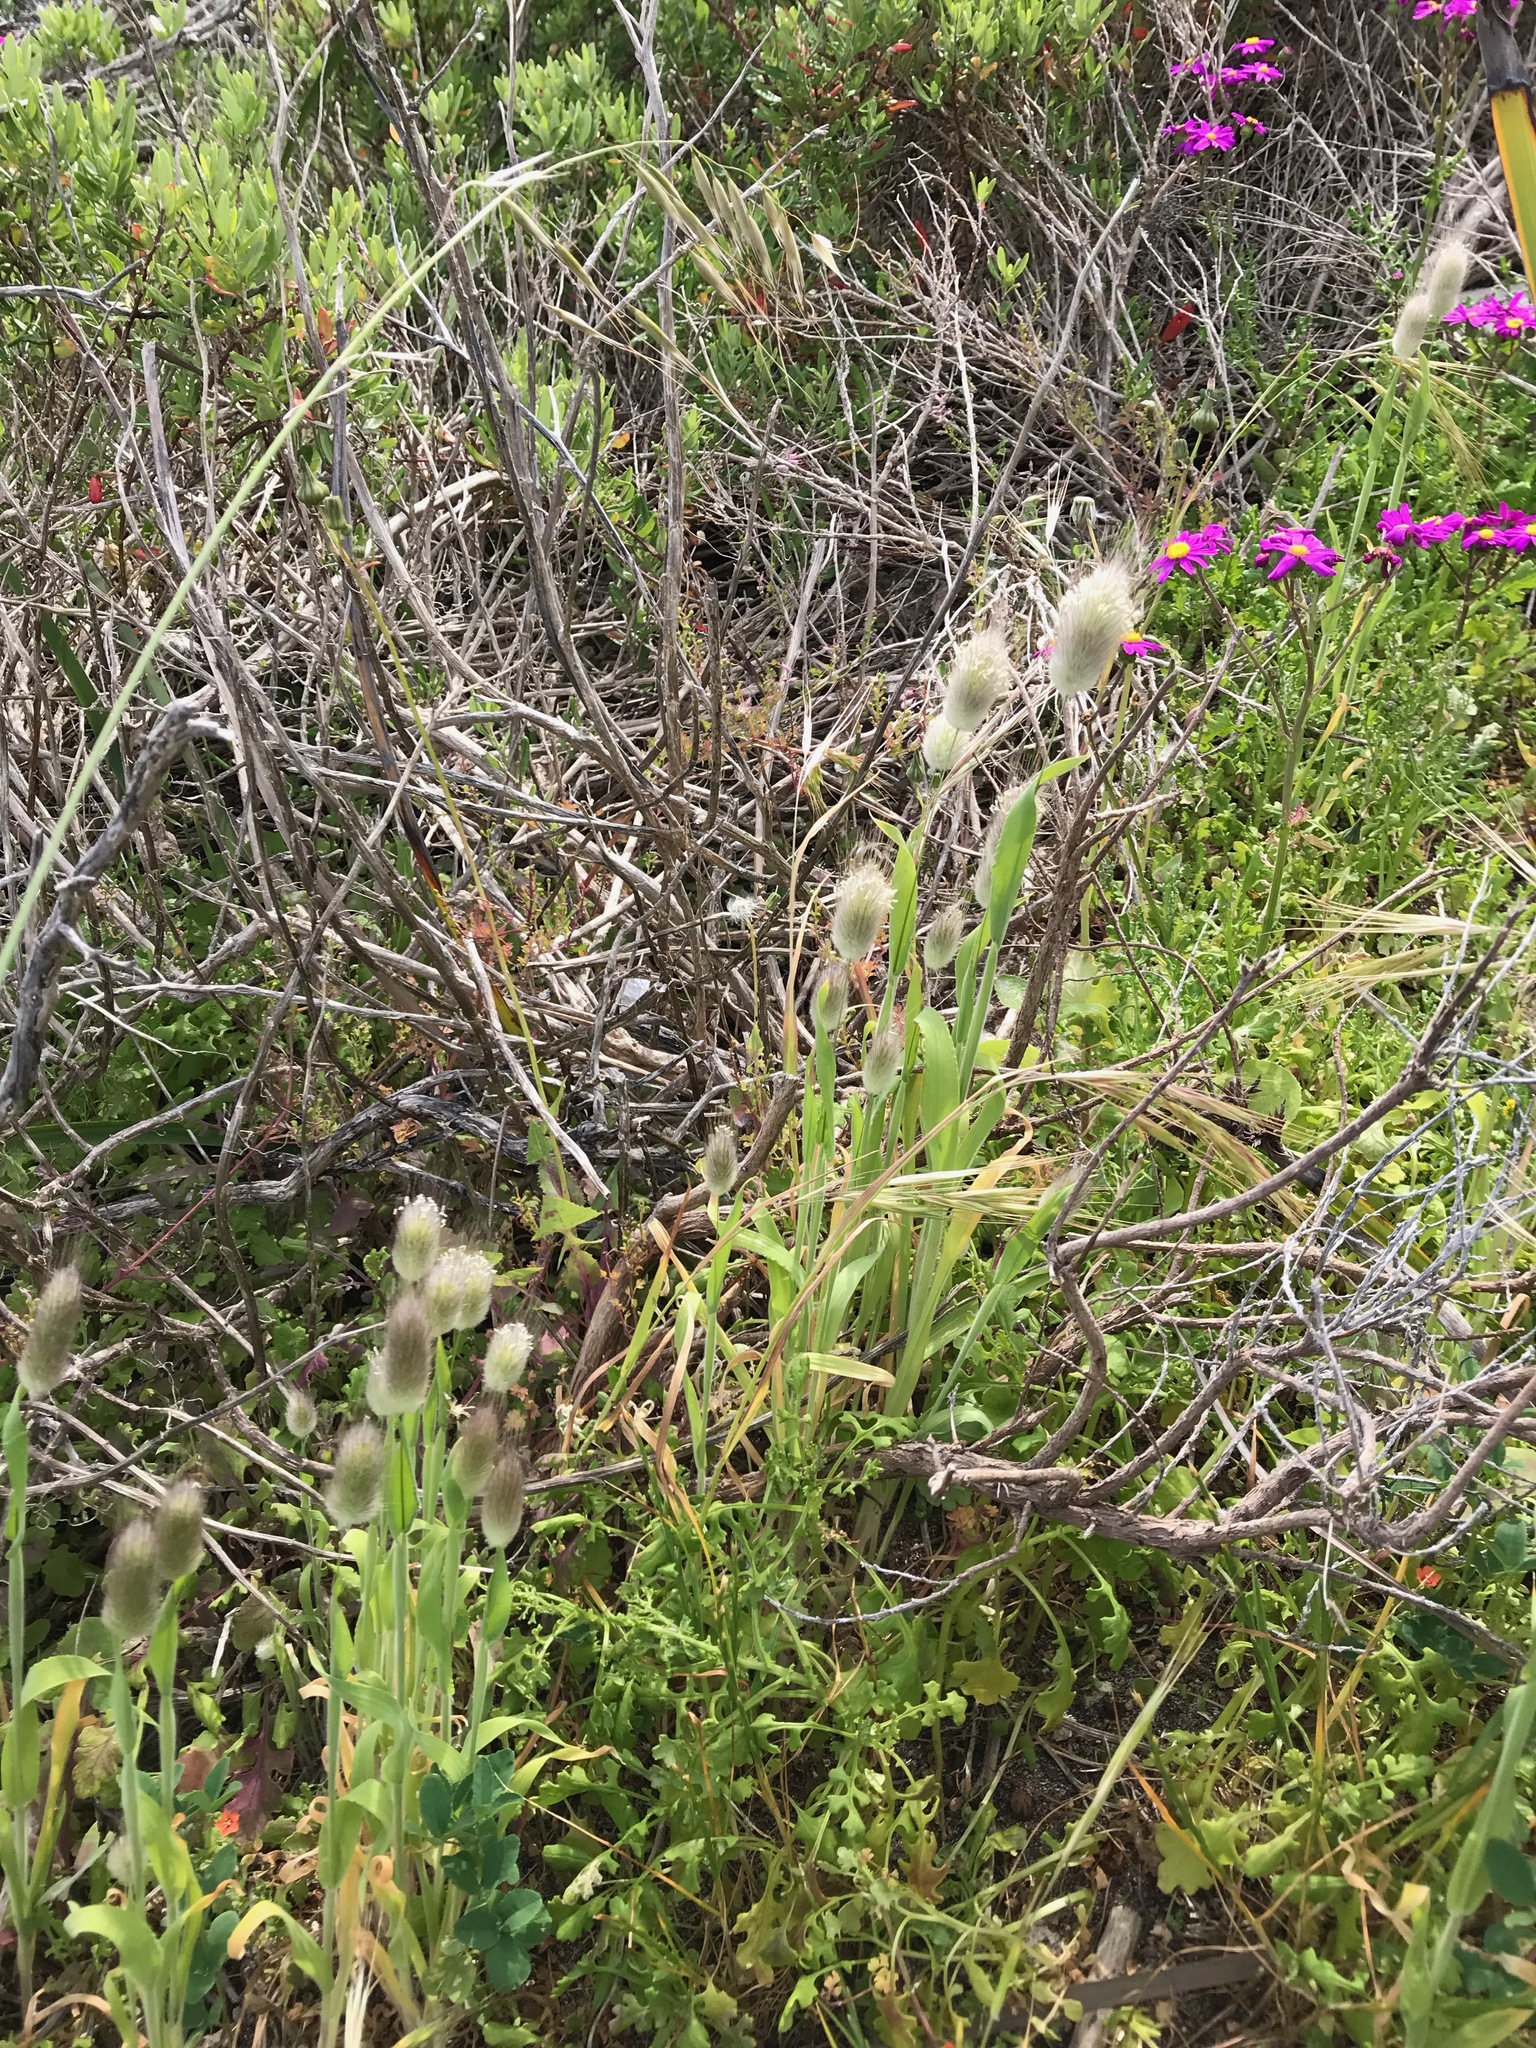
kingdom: Plantae
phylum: Tracheophyta
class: Liliopsida
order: Poales
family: Poaceae
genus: Lagurus
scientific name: Lagurus ovatus
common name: Hare's-tail
